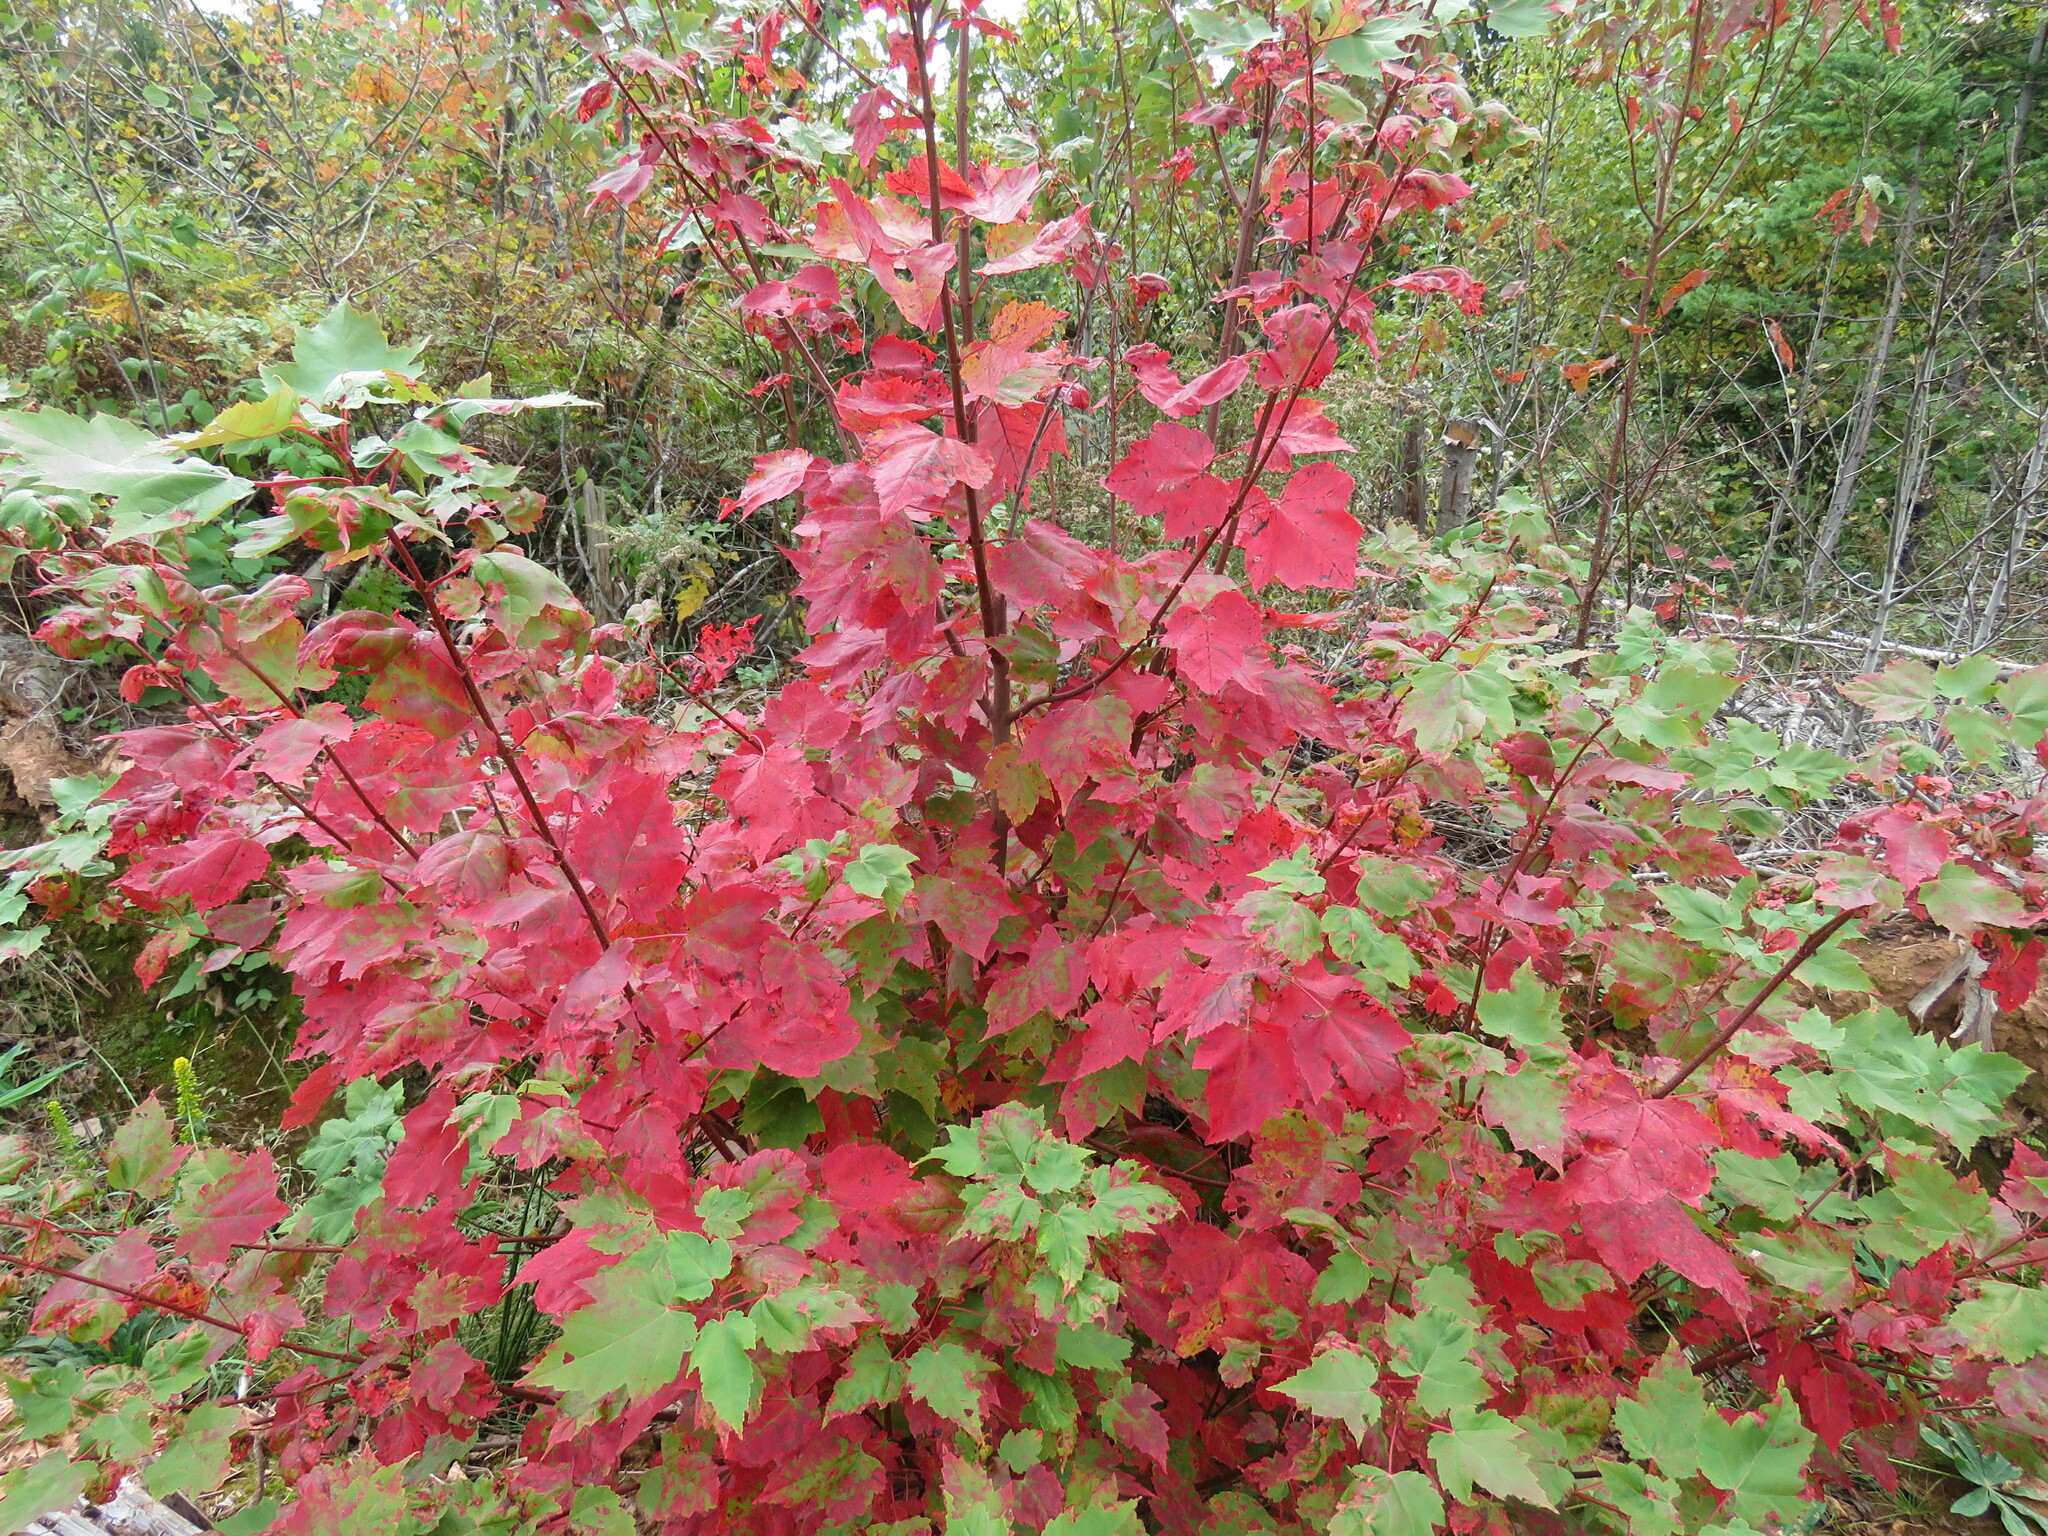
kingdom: Plantae
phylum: Tracheophyta
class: Magnoliopsida
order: Sapindales
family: Sapindaceae
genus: Acer
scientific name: Acer rubrum
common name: Red maple
